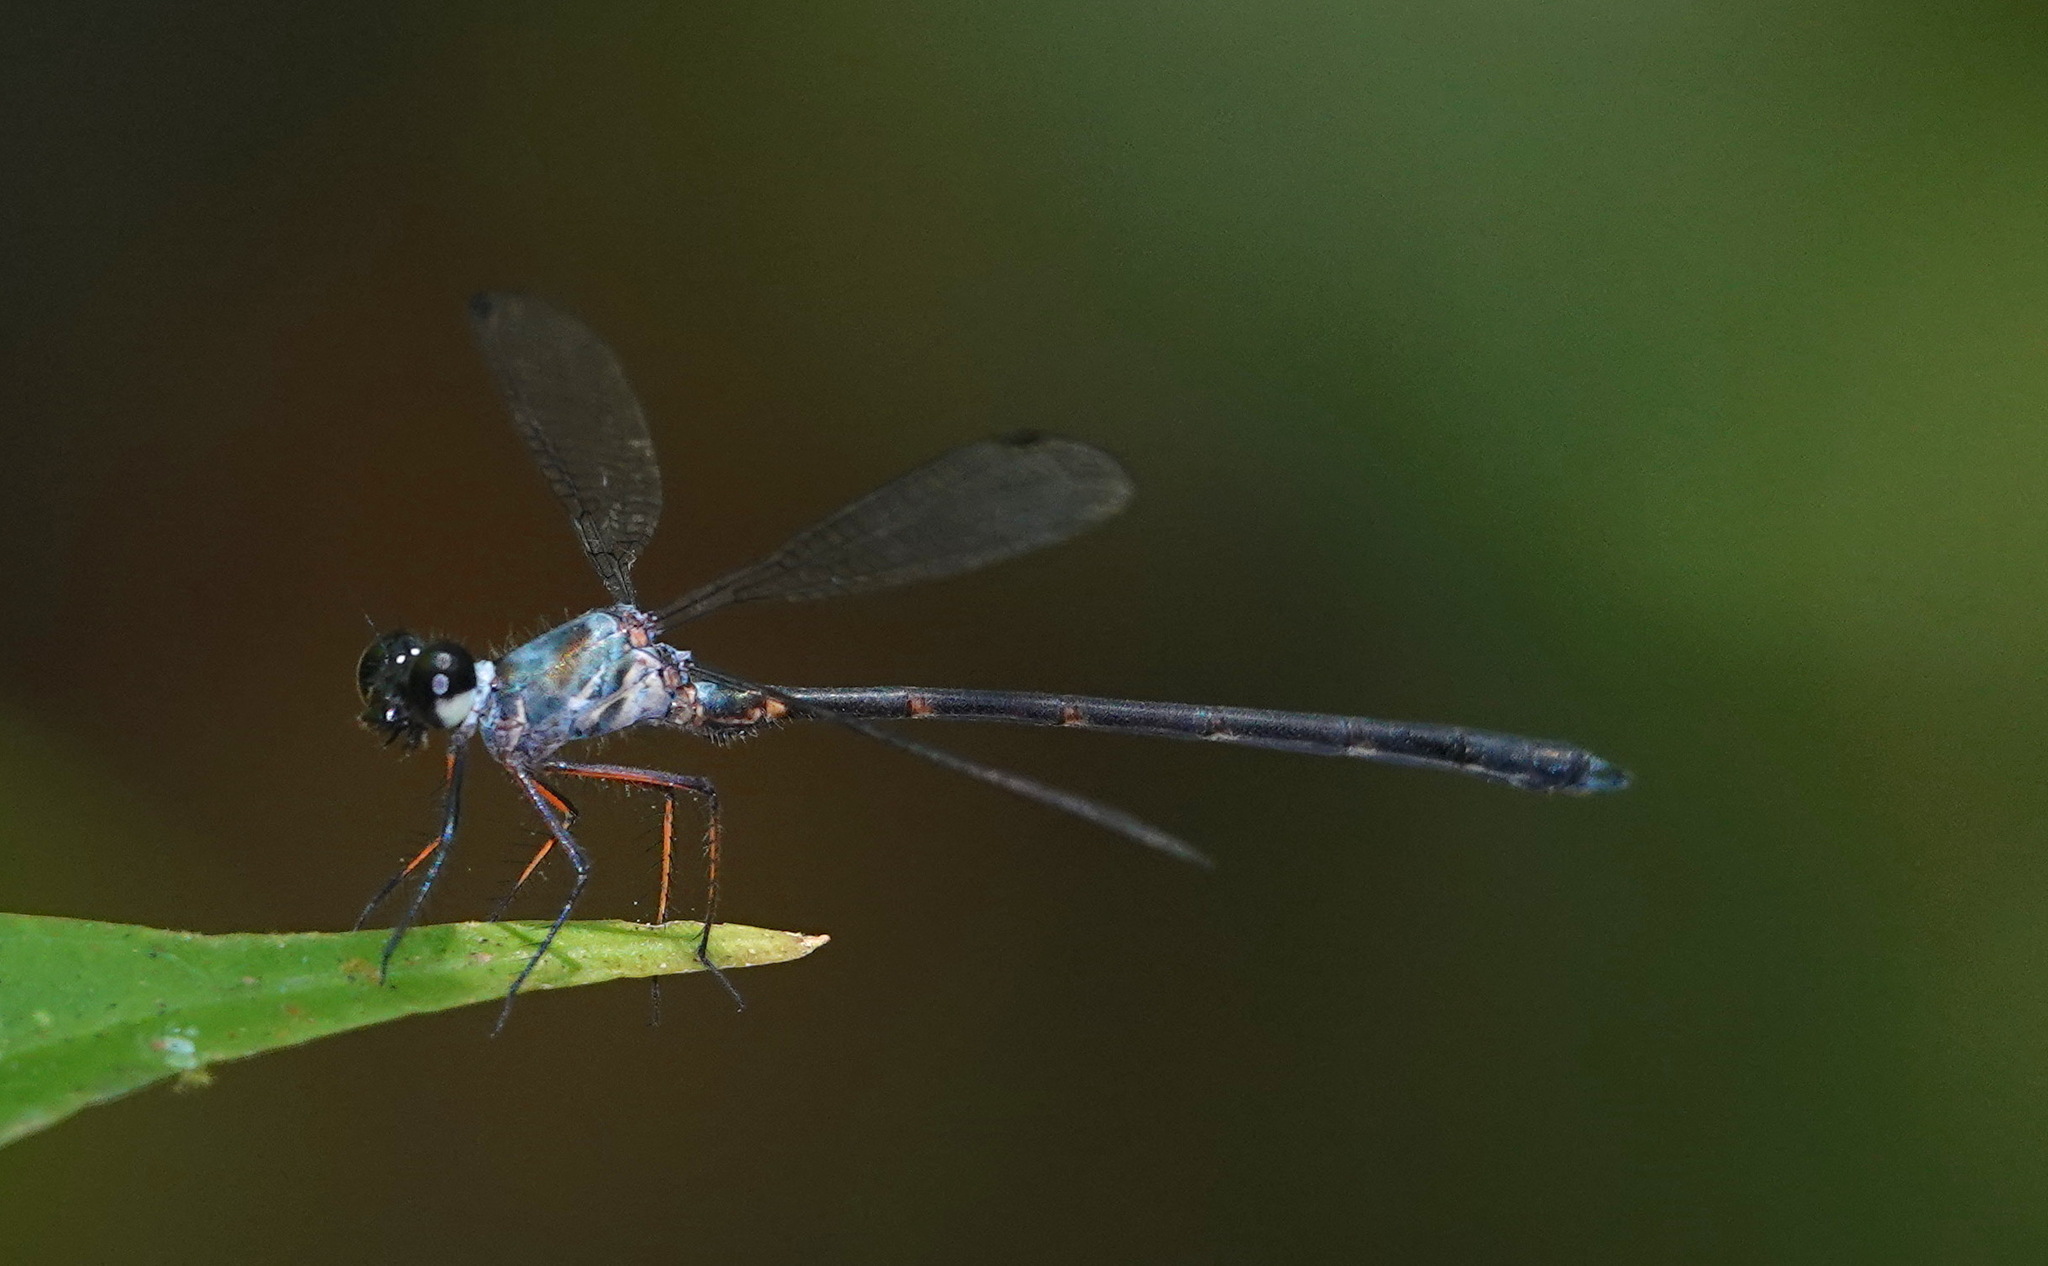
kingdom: Animalia
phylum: Arthropoda
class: Insecta
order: Odonata
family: Argiolestidae
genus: Podolestes
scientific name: Podolestes buwaldai
